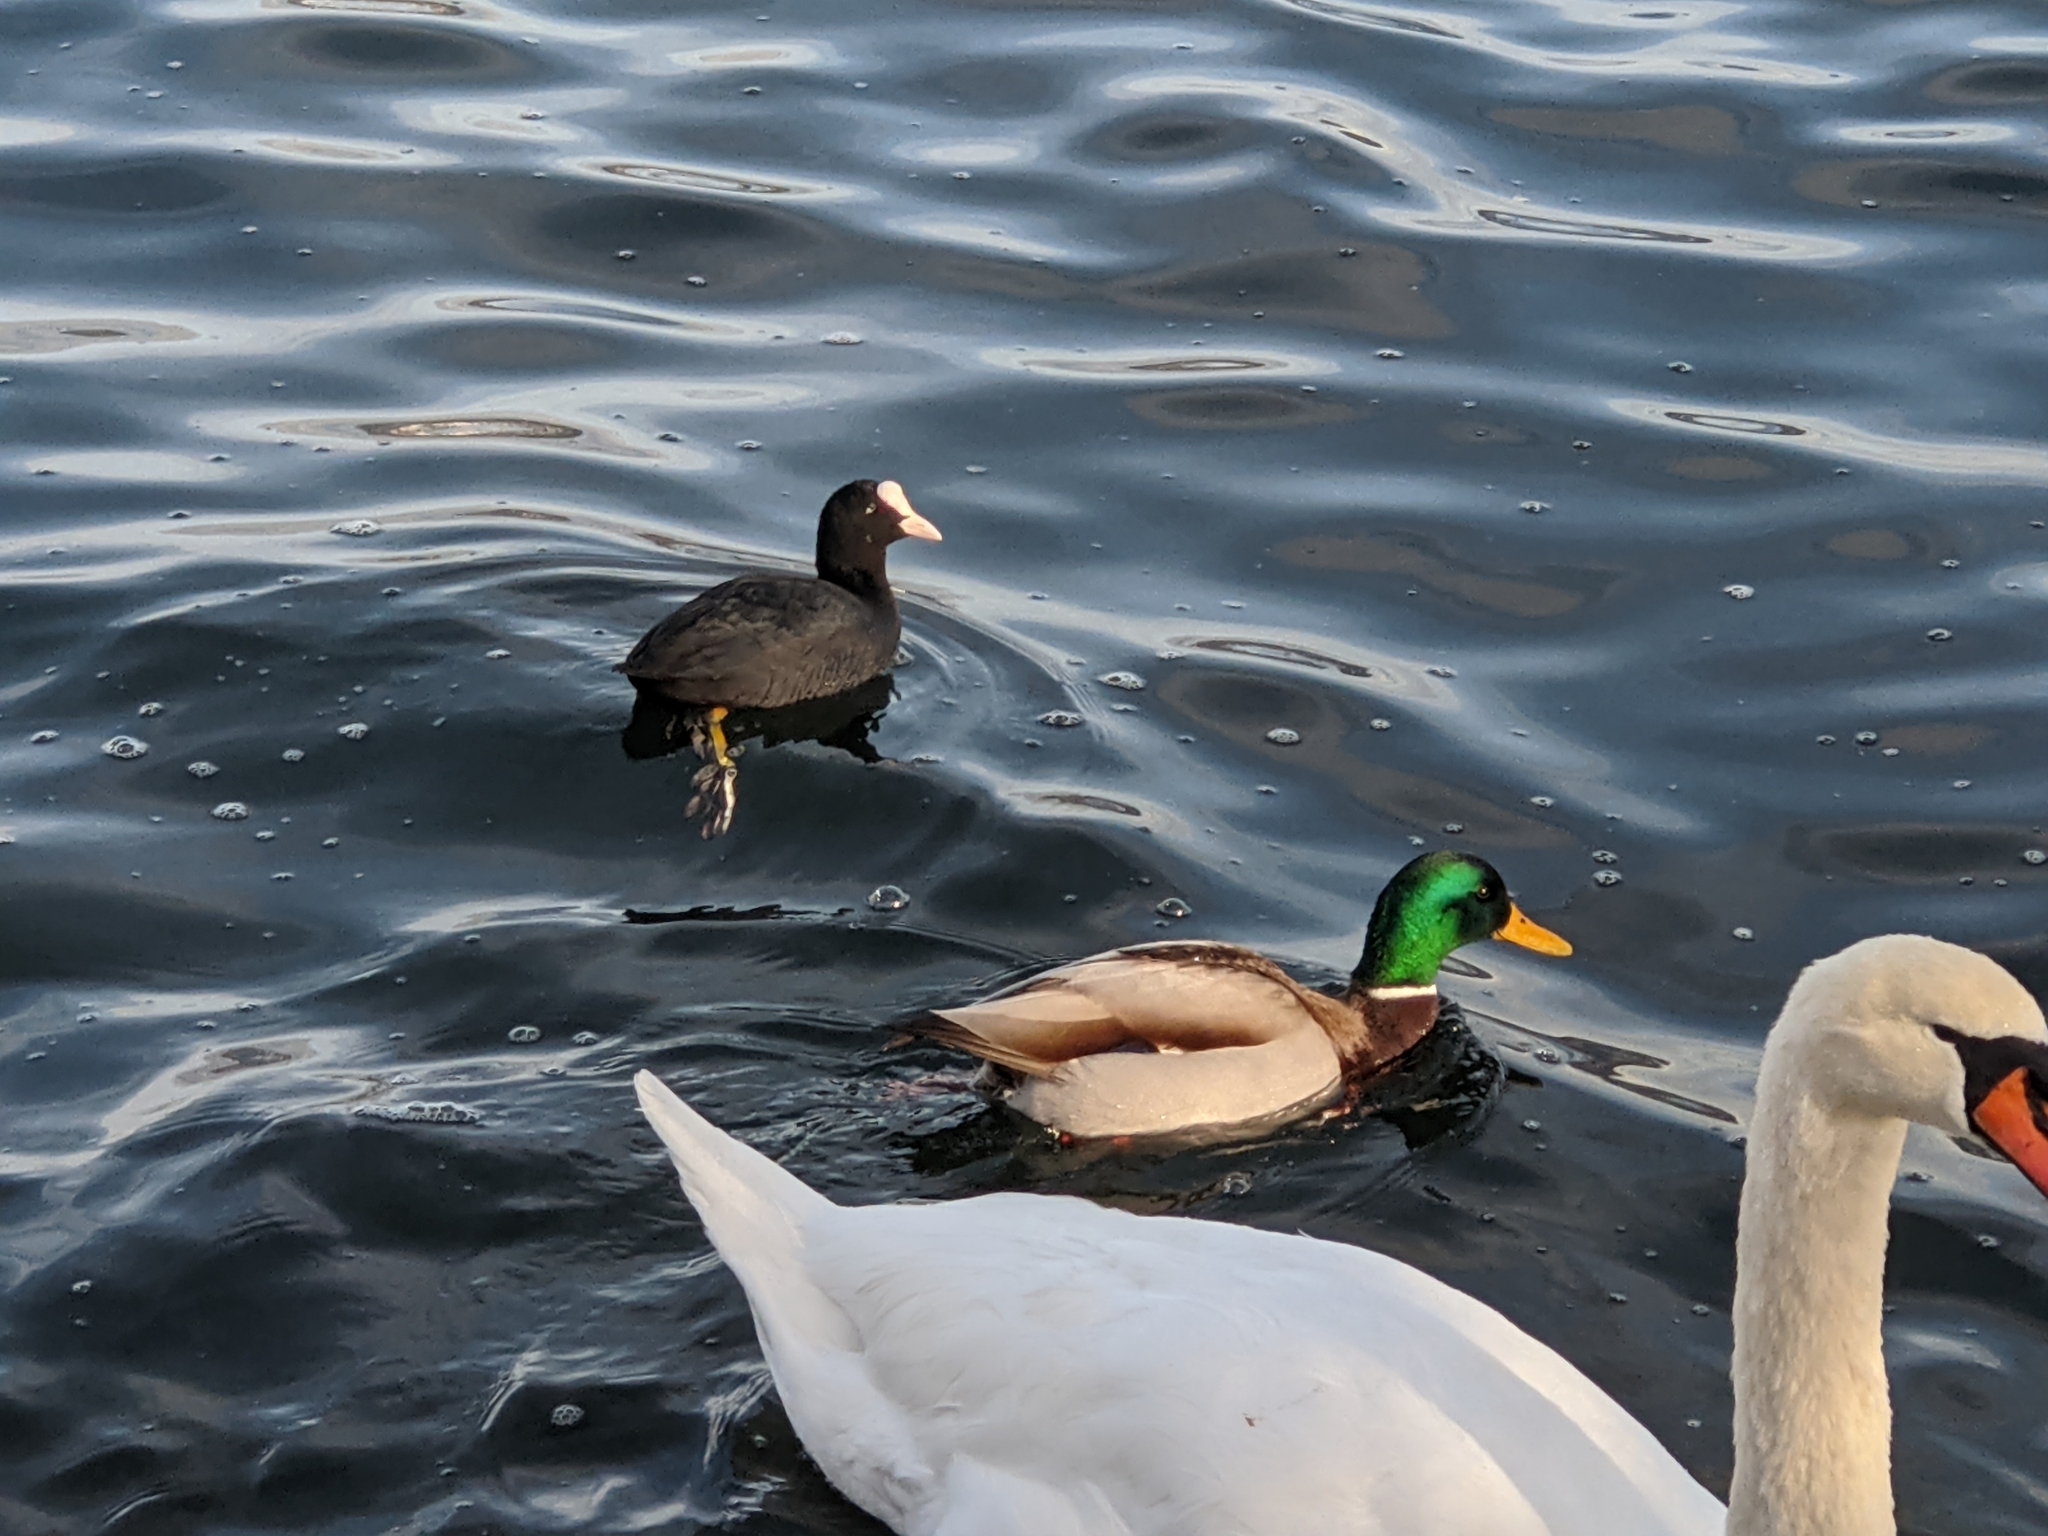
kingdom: Animalia
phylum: Chordata
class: Aves
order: Gruiformes
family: Rallidae
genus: Fulica
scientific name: Fulica atra
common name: Eurasian coot
